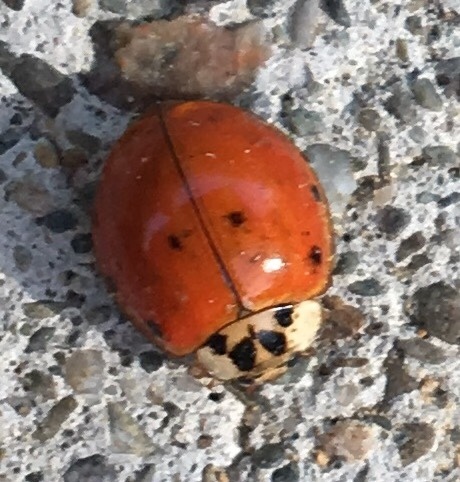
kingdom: Animalia
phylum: Arthropoda
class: Insecta
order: Coleoptera
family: Coccinellidae
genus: Harmonia
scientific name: Harmonia axyridis
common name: Harlequin ladybird
